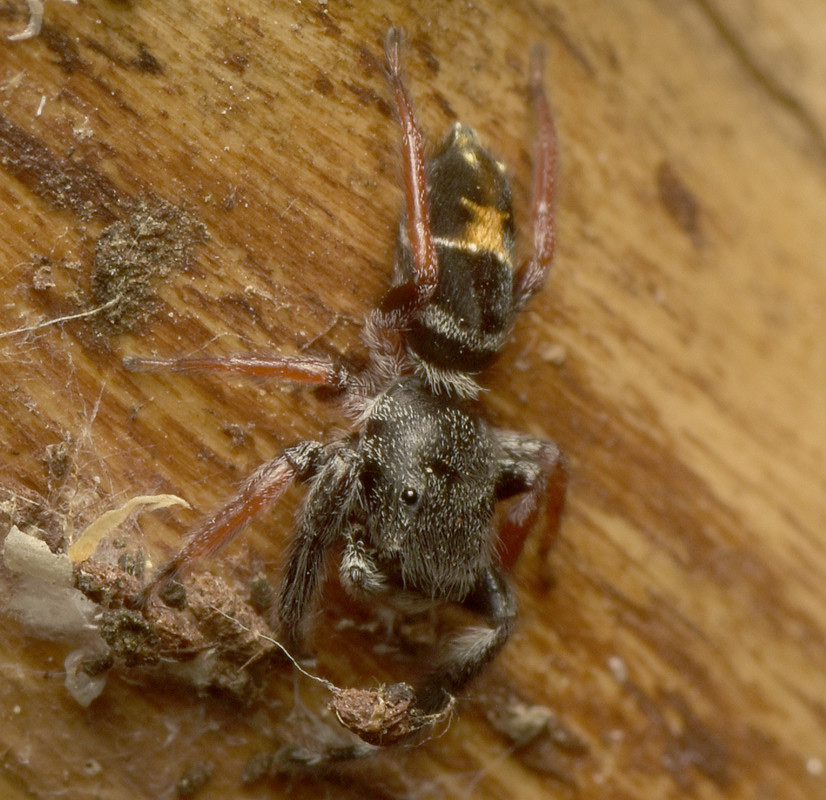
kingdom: Animalia
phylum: Arthropoda
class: Arachnida
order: Araneae
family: Salticidae
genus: Apricia
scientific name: Apricia jovialis
